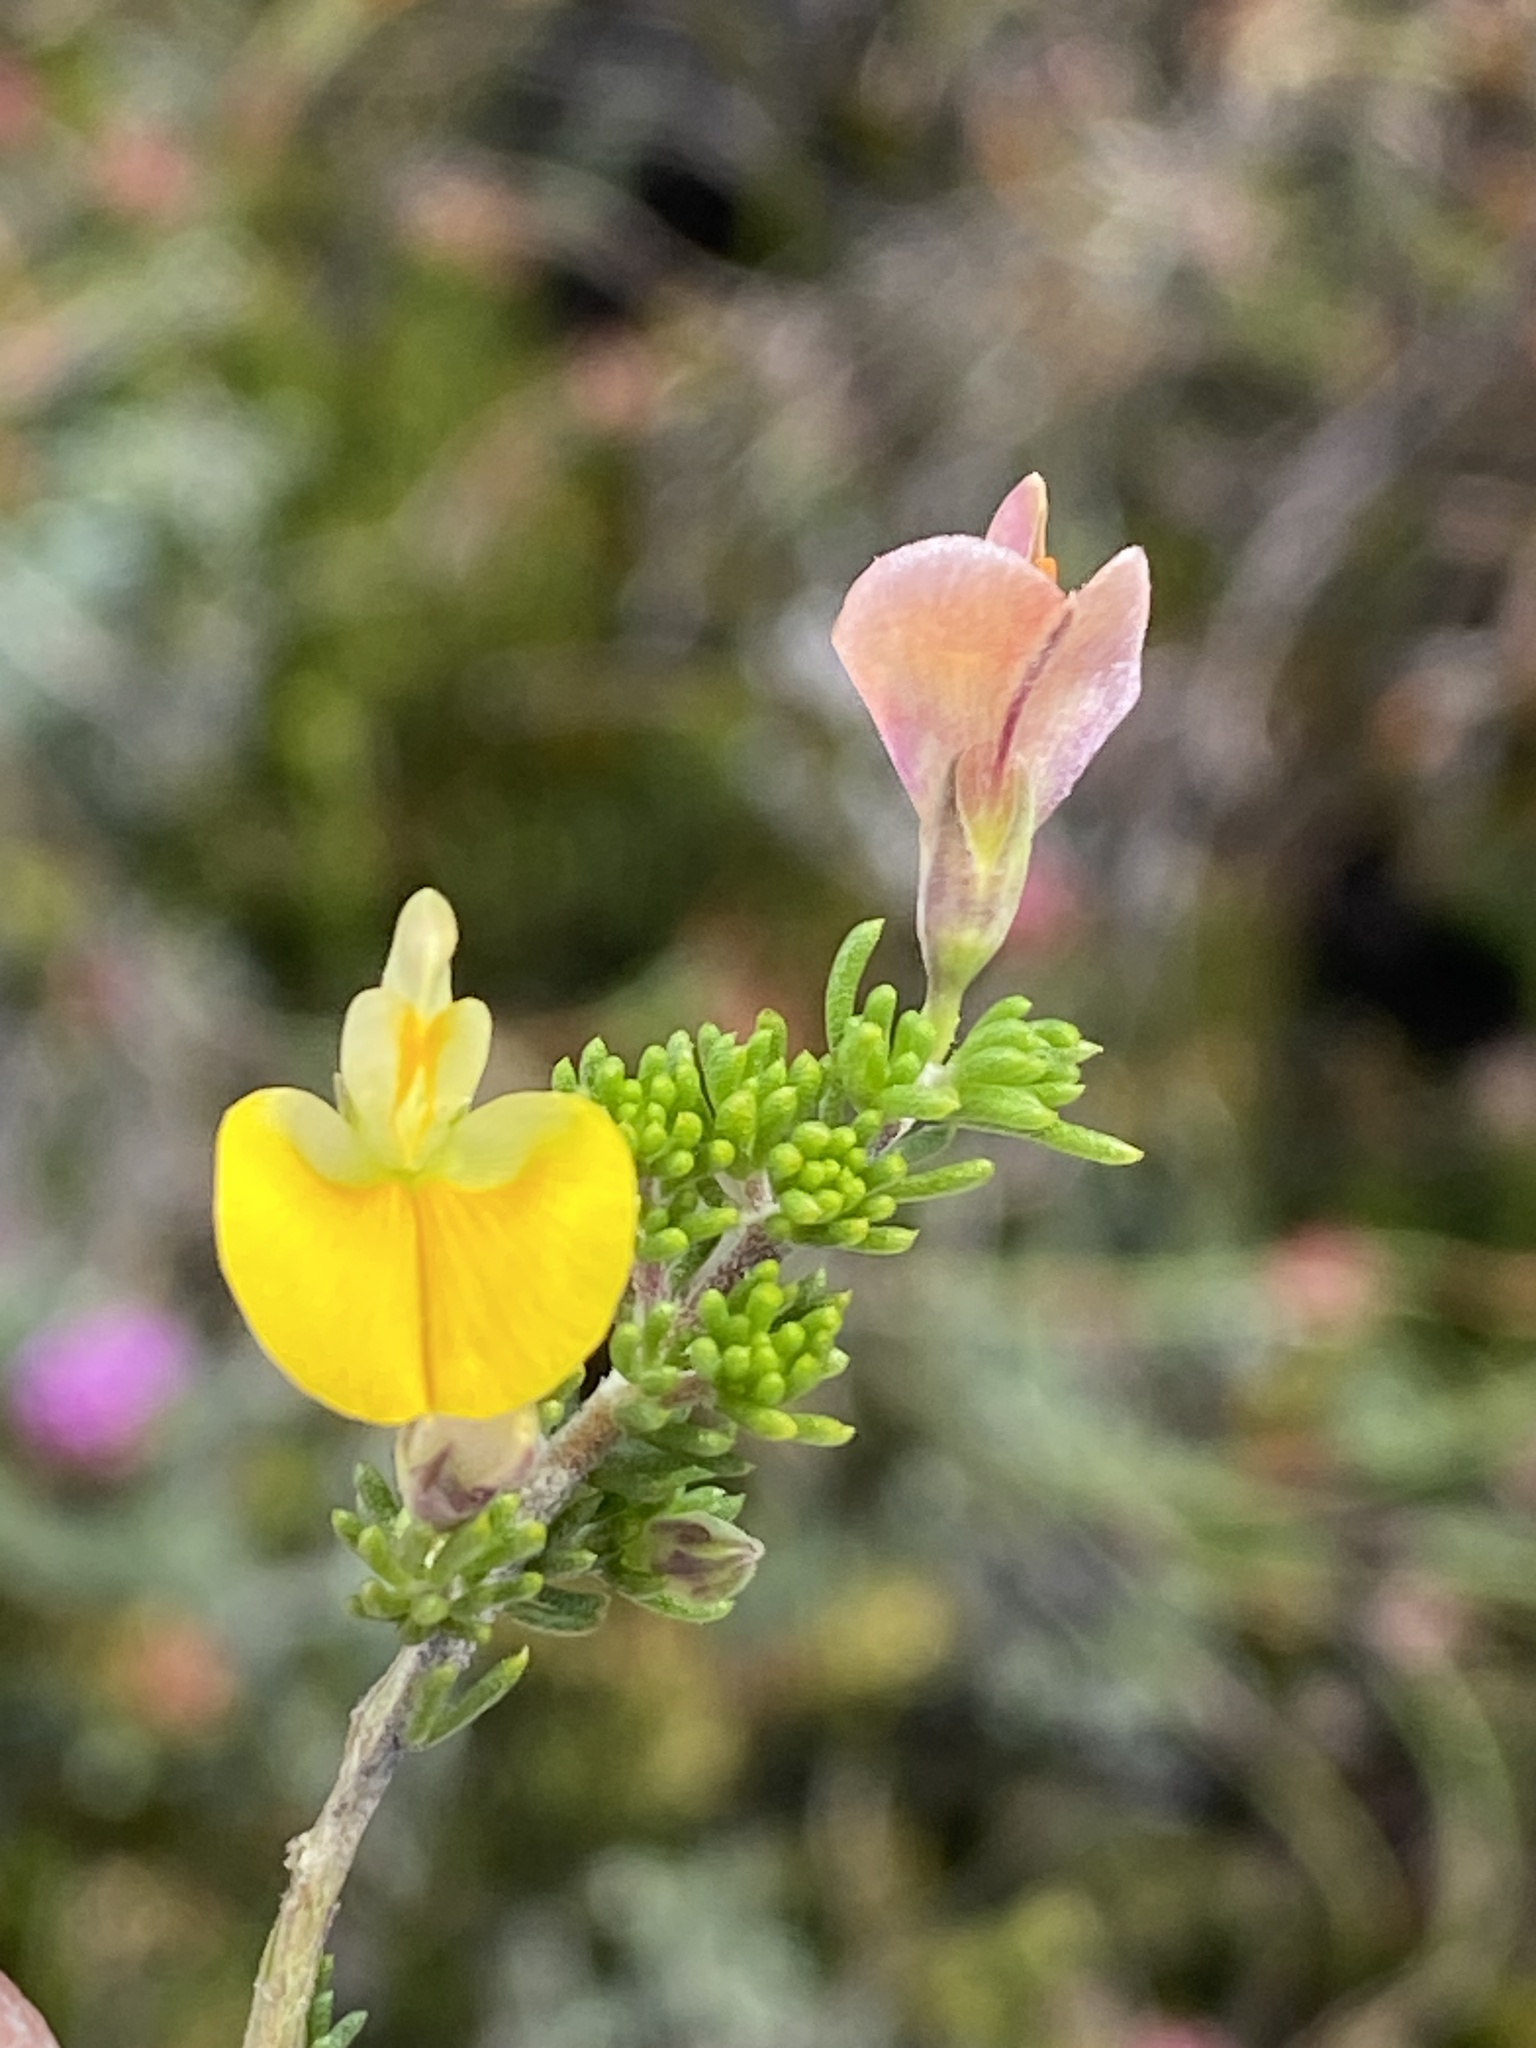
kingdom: Plantae
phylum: Tracheophyta
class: Magnoliopsida
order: Fabales
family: Fabaceae
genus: Aspalathus
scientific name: Aspalathus brevicarpa
